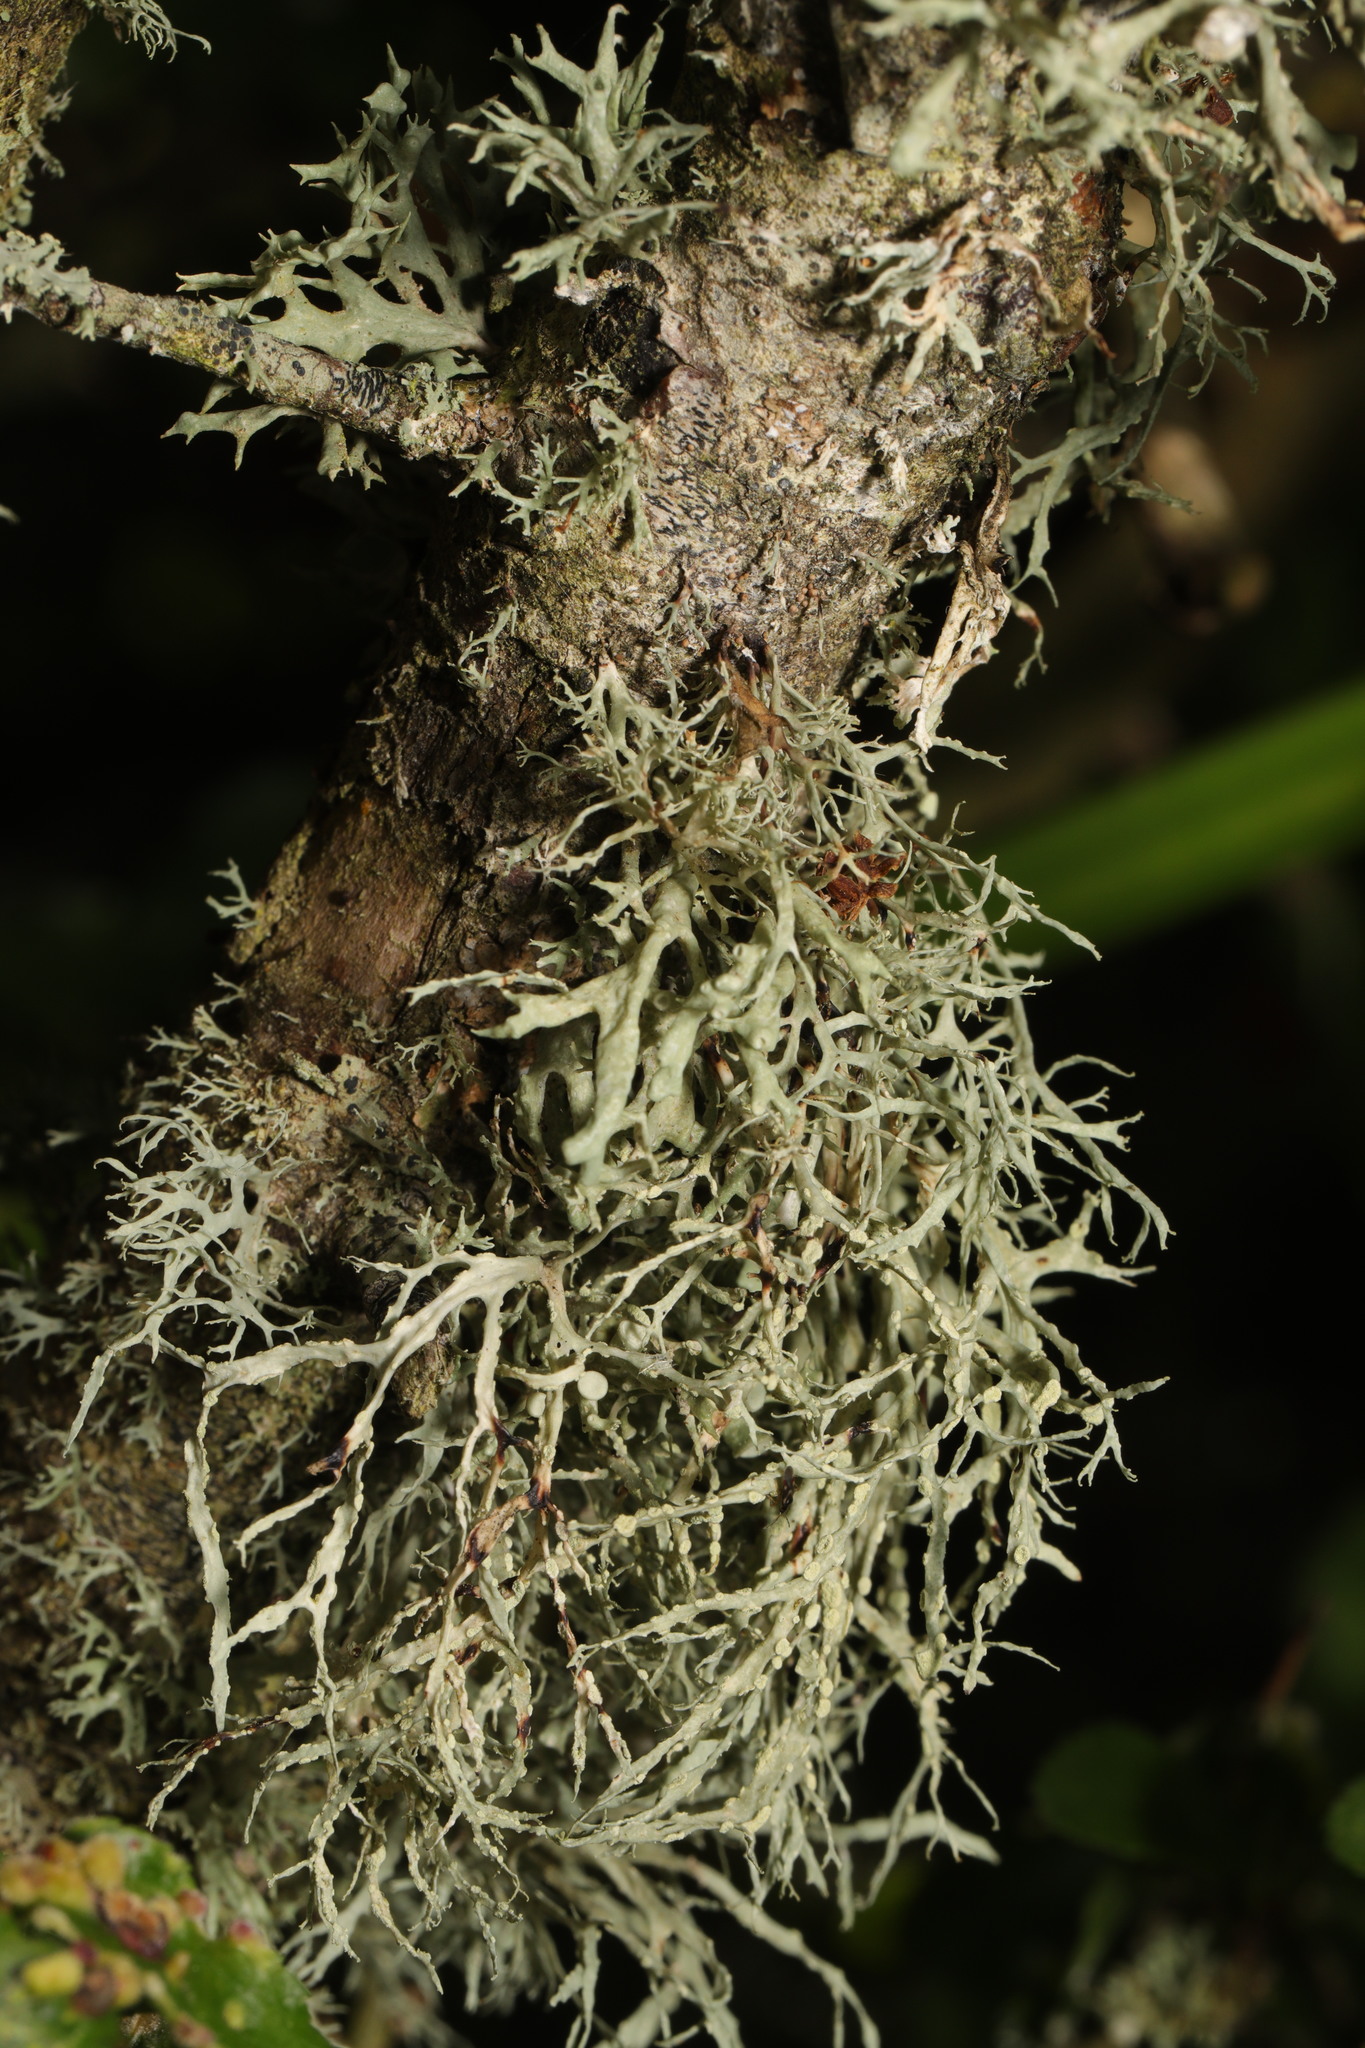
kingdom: Fungi
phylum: Ascomycota
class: Lecanoromycetes
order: Lecanorales
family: Ramalinaceae
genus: Ramalina
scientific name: Ramalina farinacea
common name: Farinose cartilage lichen
